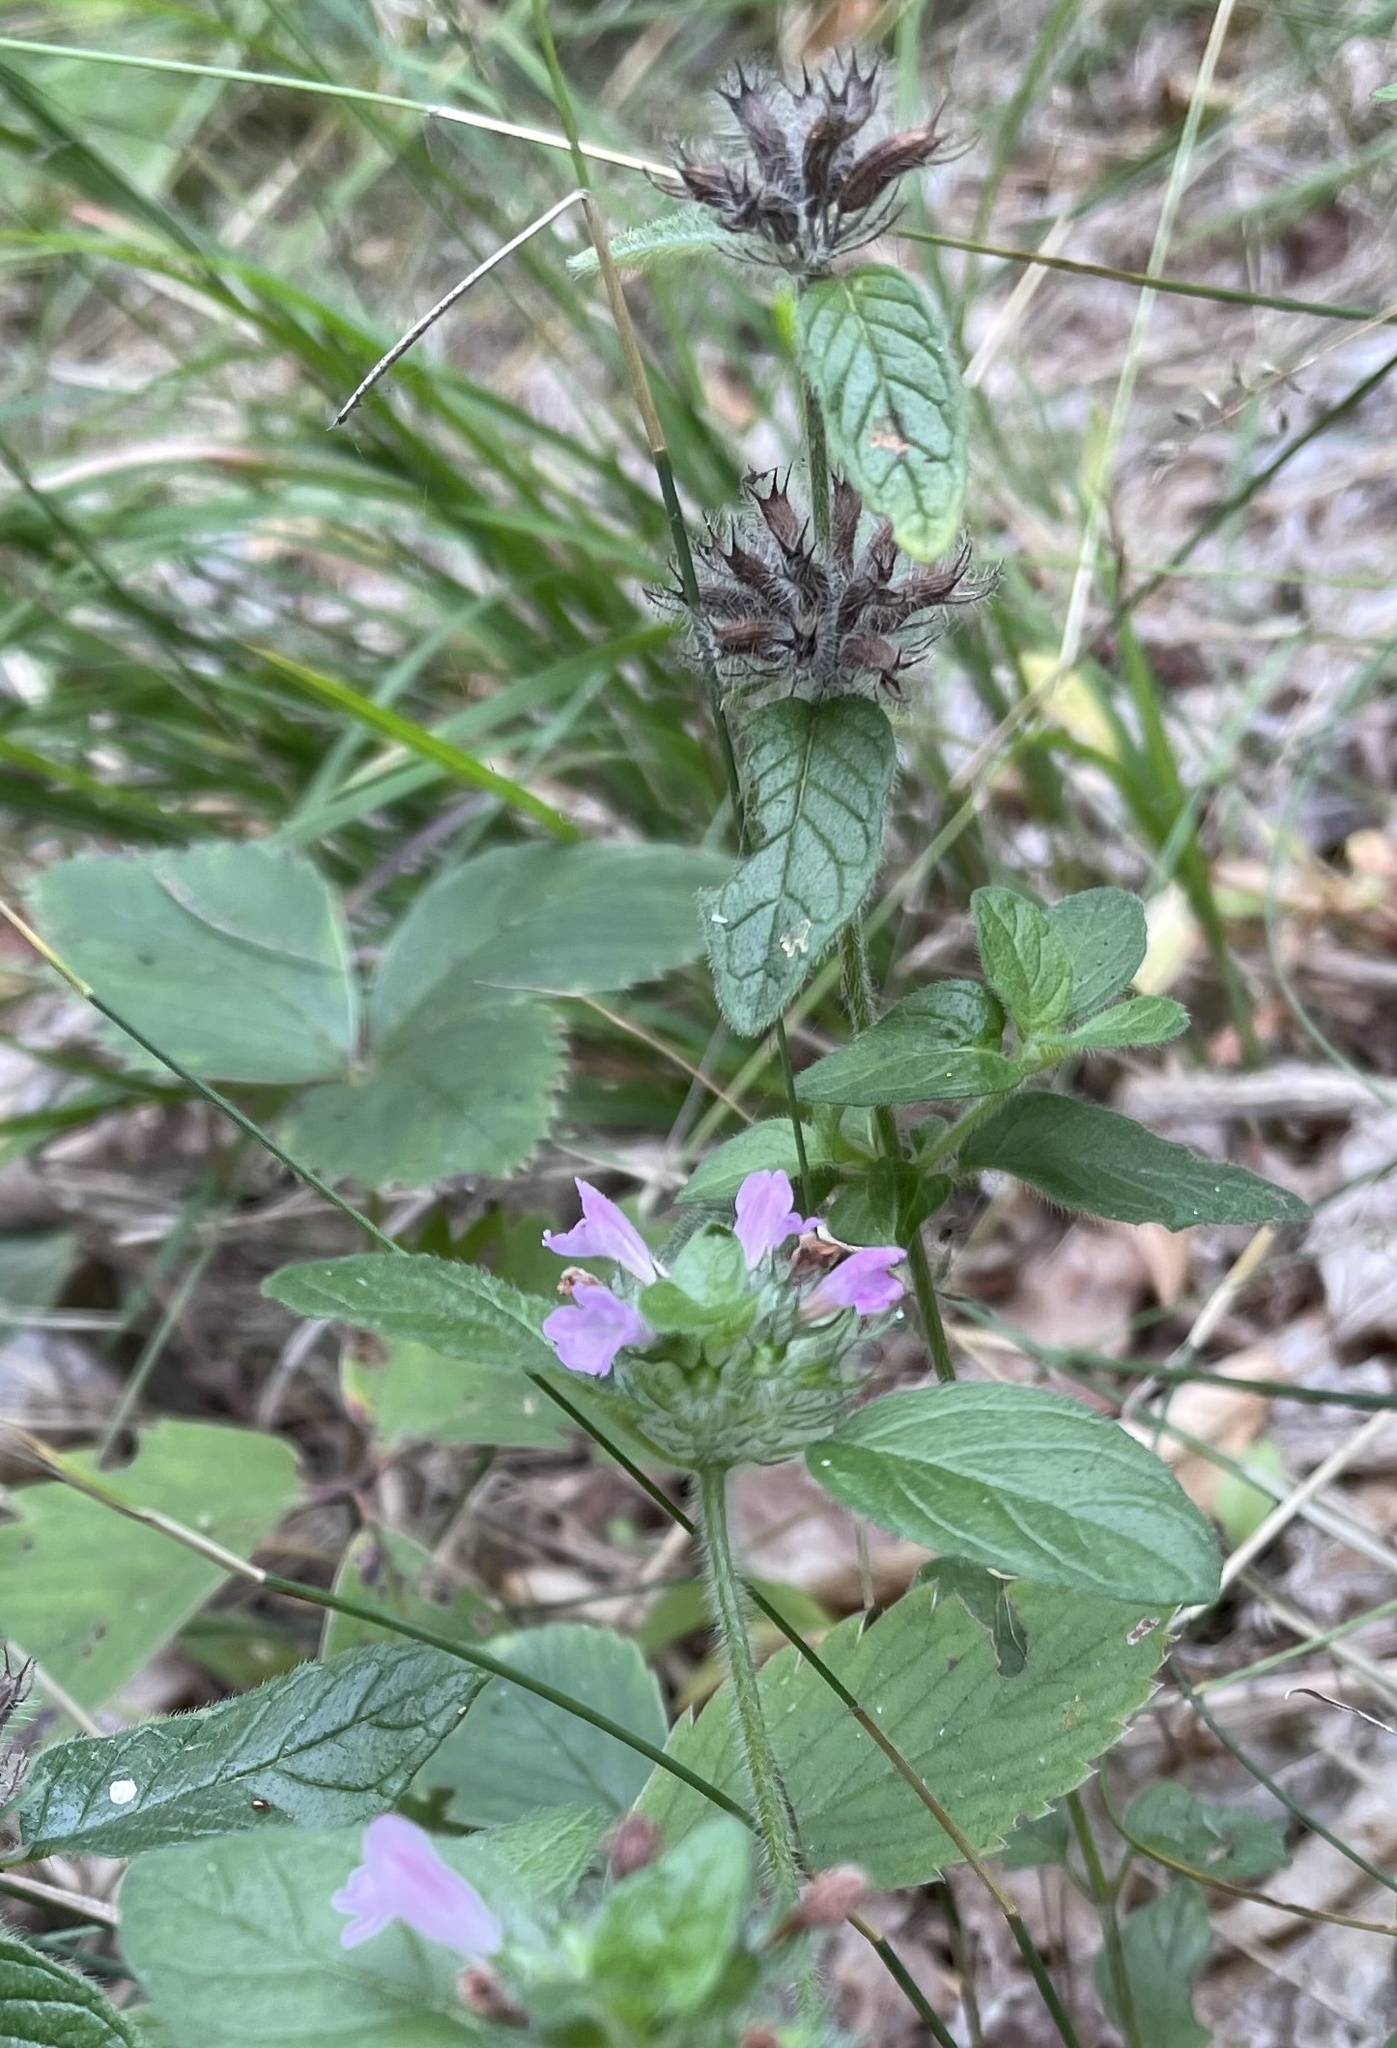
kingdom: Plantae
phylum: Tracheophyta
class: Magnoliopsida
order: Lamiales
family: Lamiaceae
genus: Clinopodium
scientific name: Clinopodium vulgare
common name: Wild basil
